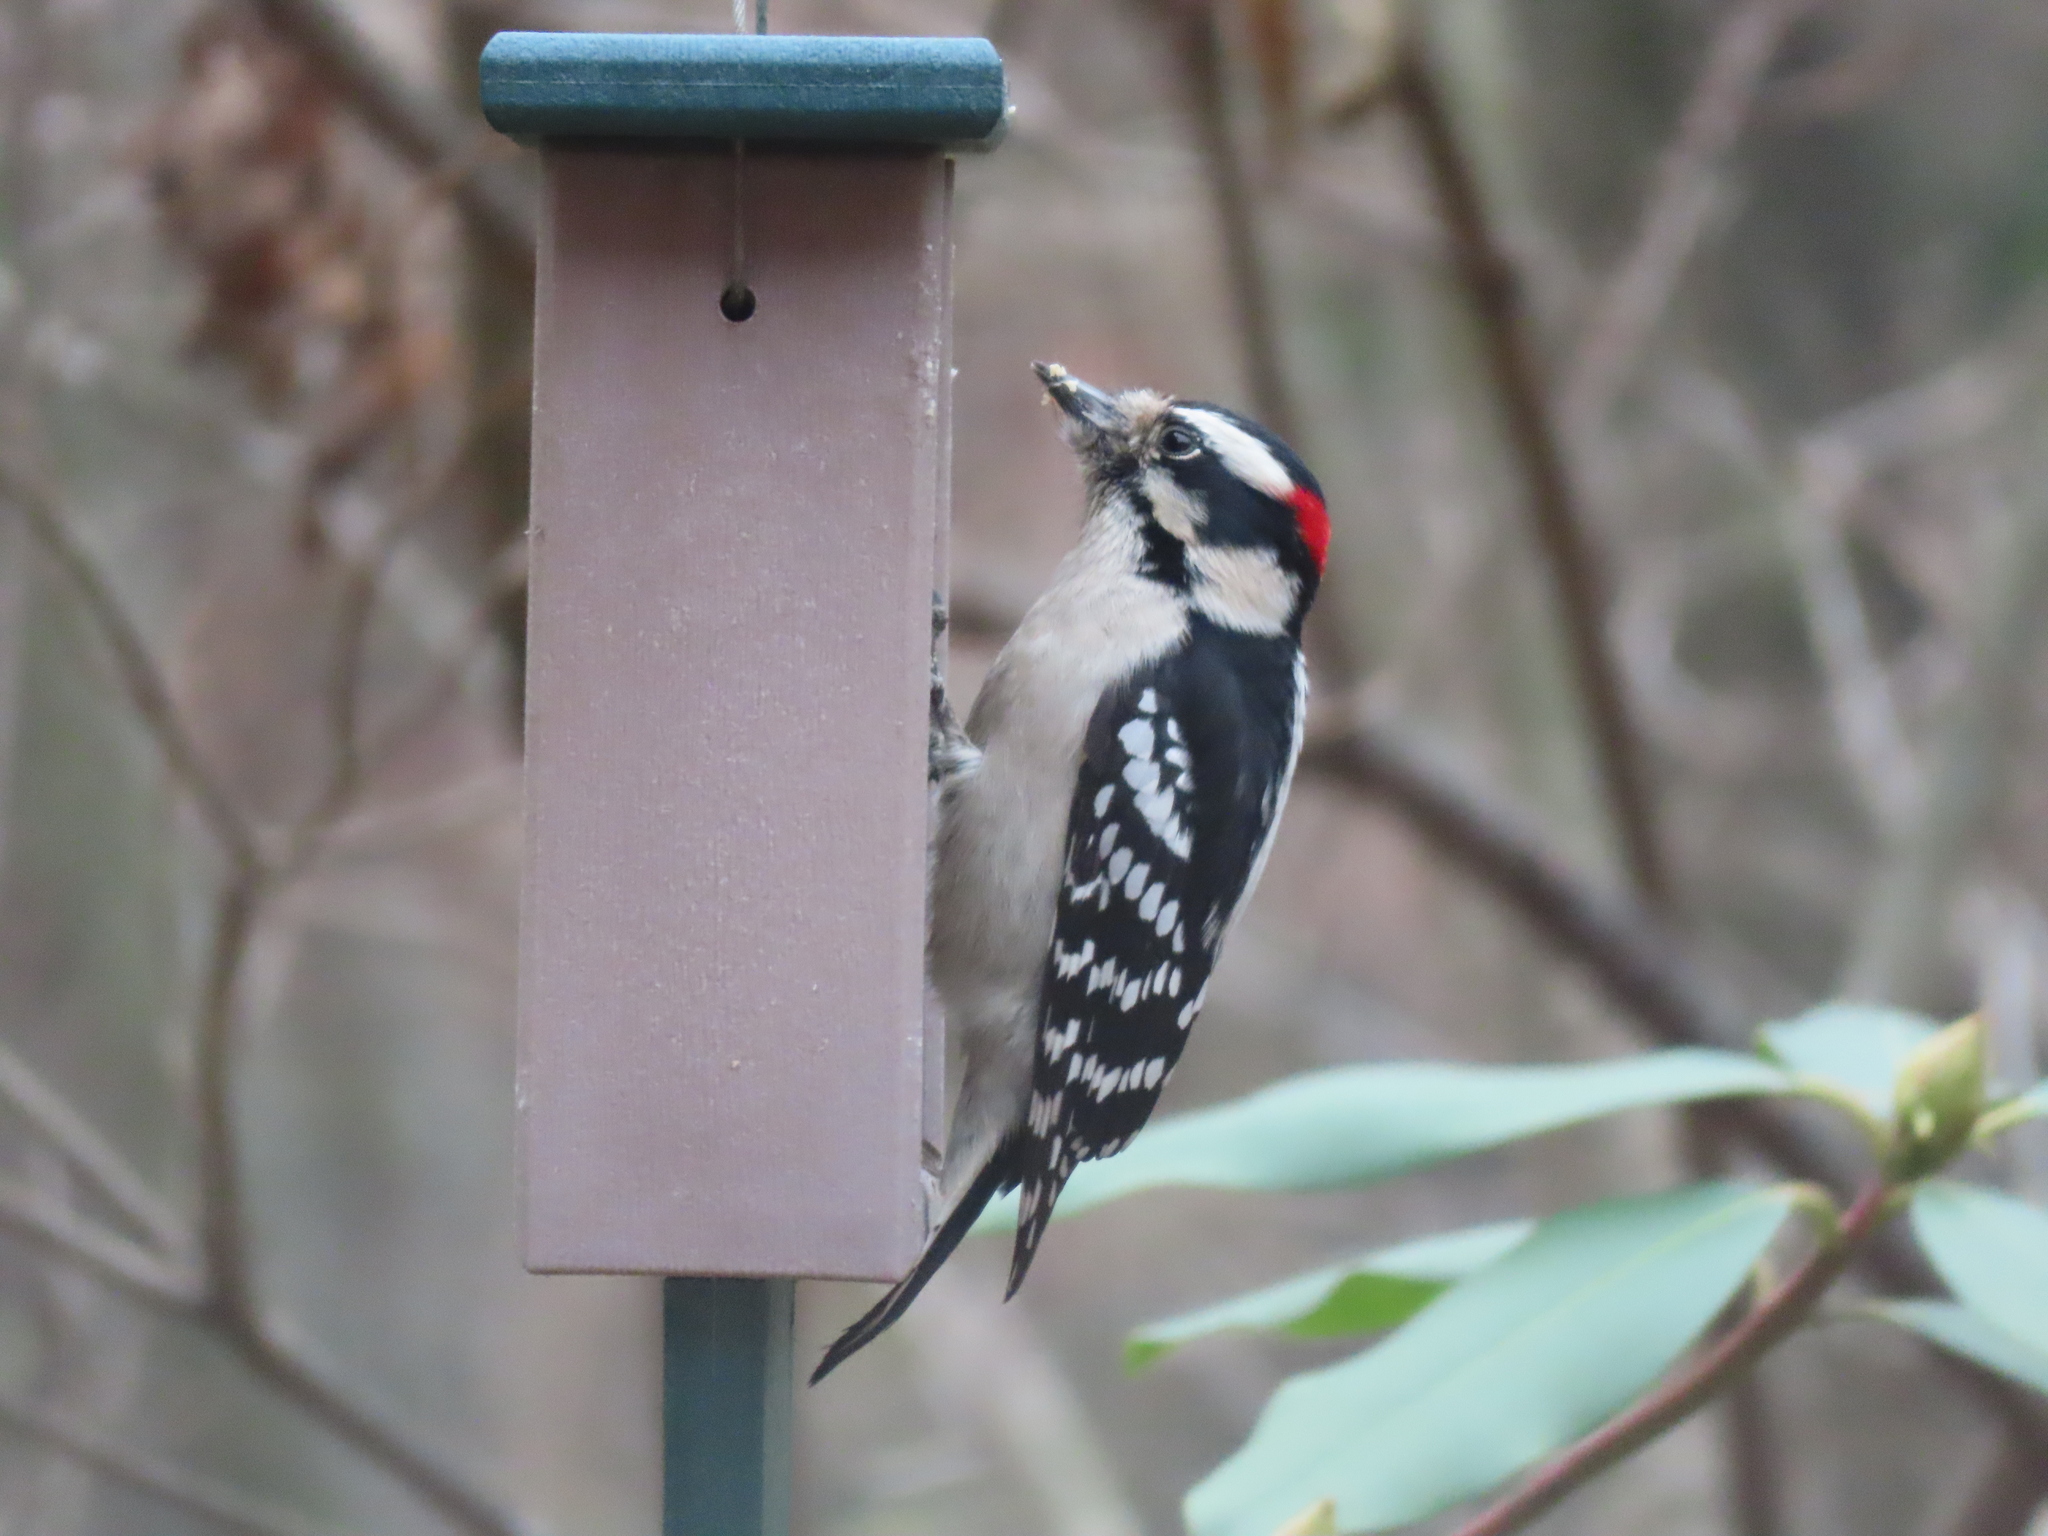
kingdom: Animalia
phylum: Chordata
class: Aves
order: Piciformes
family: Picidae
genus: Dryobates
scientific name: Dryobates pubescens
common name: Downy woodpecker
